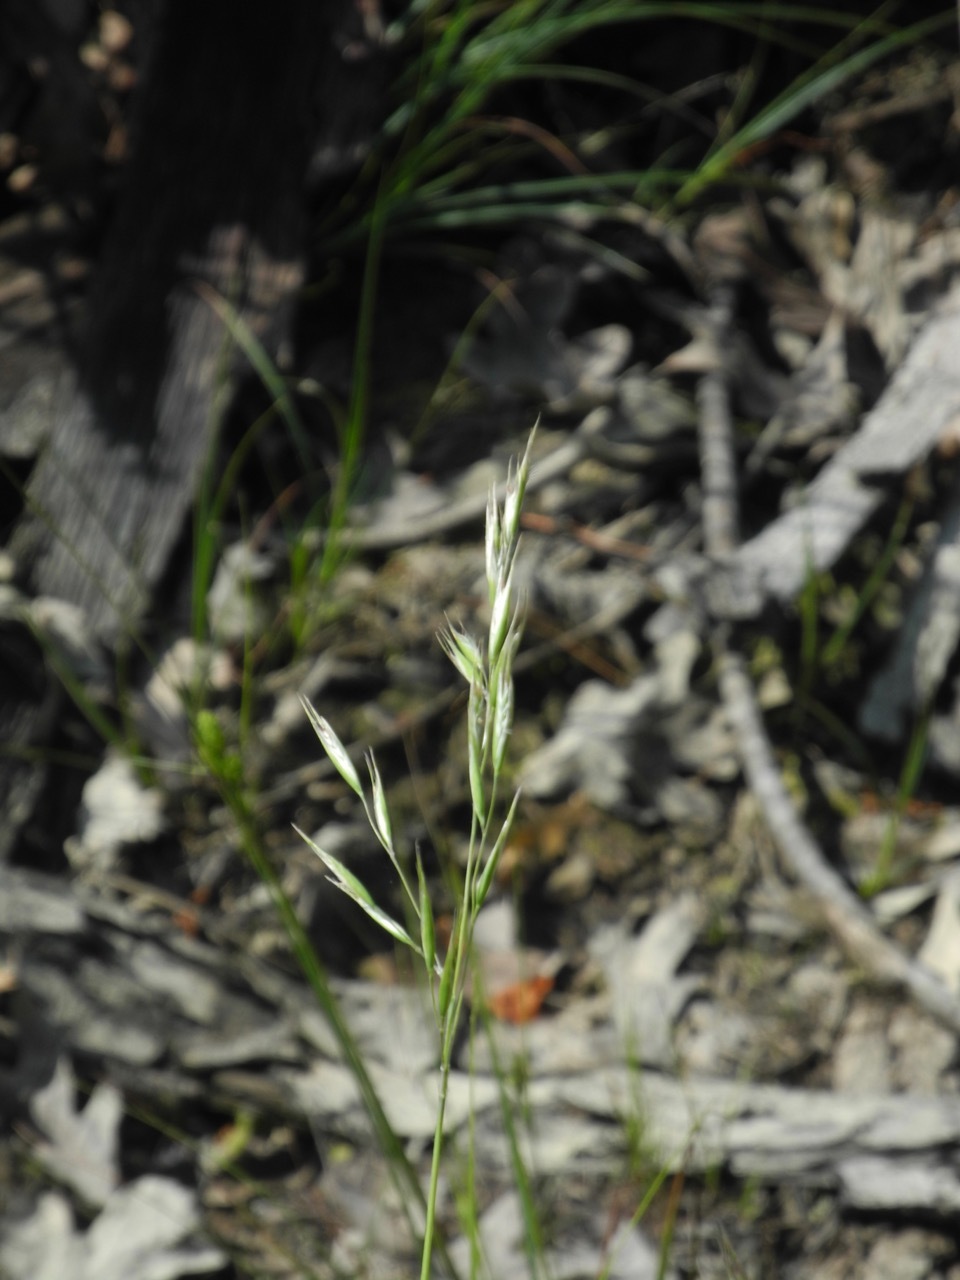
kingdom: Plantae
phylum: Tracheophyta
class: Liliopsida
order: Poales
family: Poaceae
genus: Danthonia
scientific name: Danthonia sericea
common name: Downy danthonia
